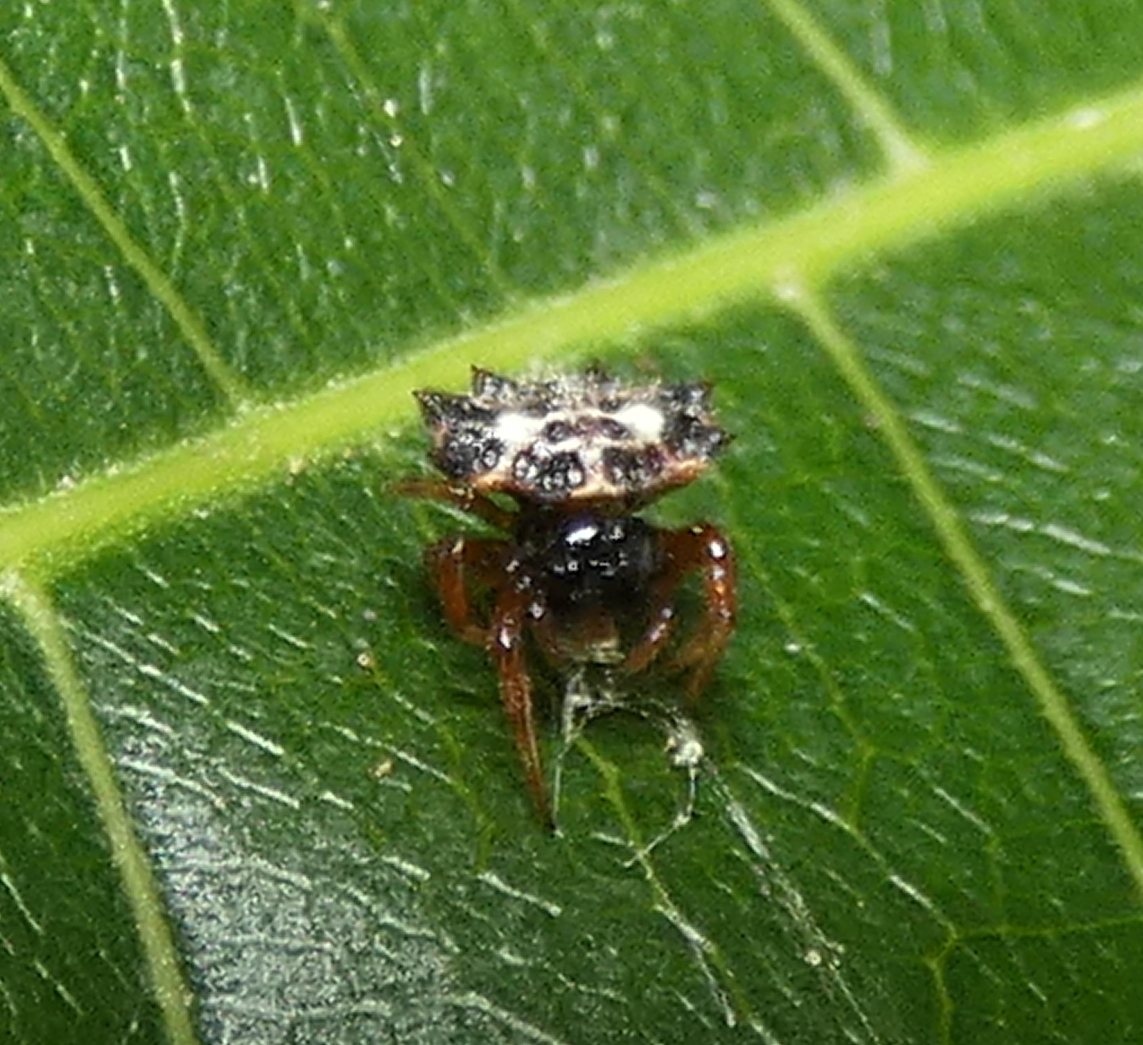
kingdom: Animalia
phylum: Arthropoda
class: Arachnida
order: Araneae
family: Araneidae
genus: Gasteracantha
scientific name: Gasteracantha cancriformis
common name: Orb weavers
